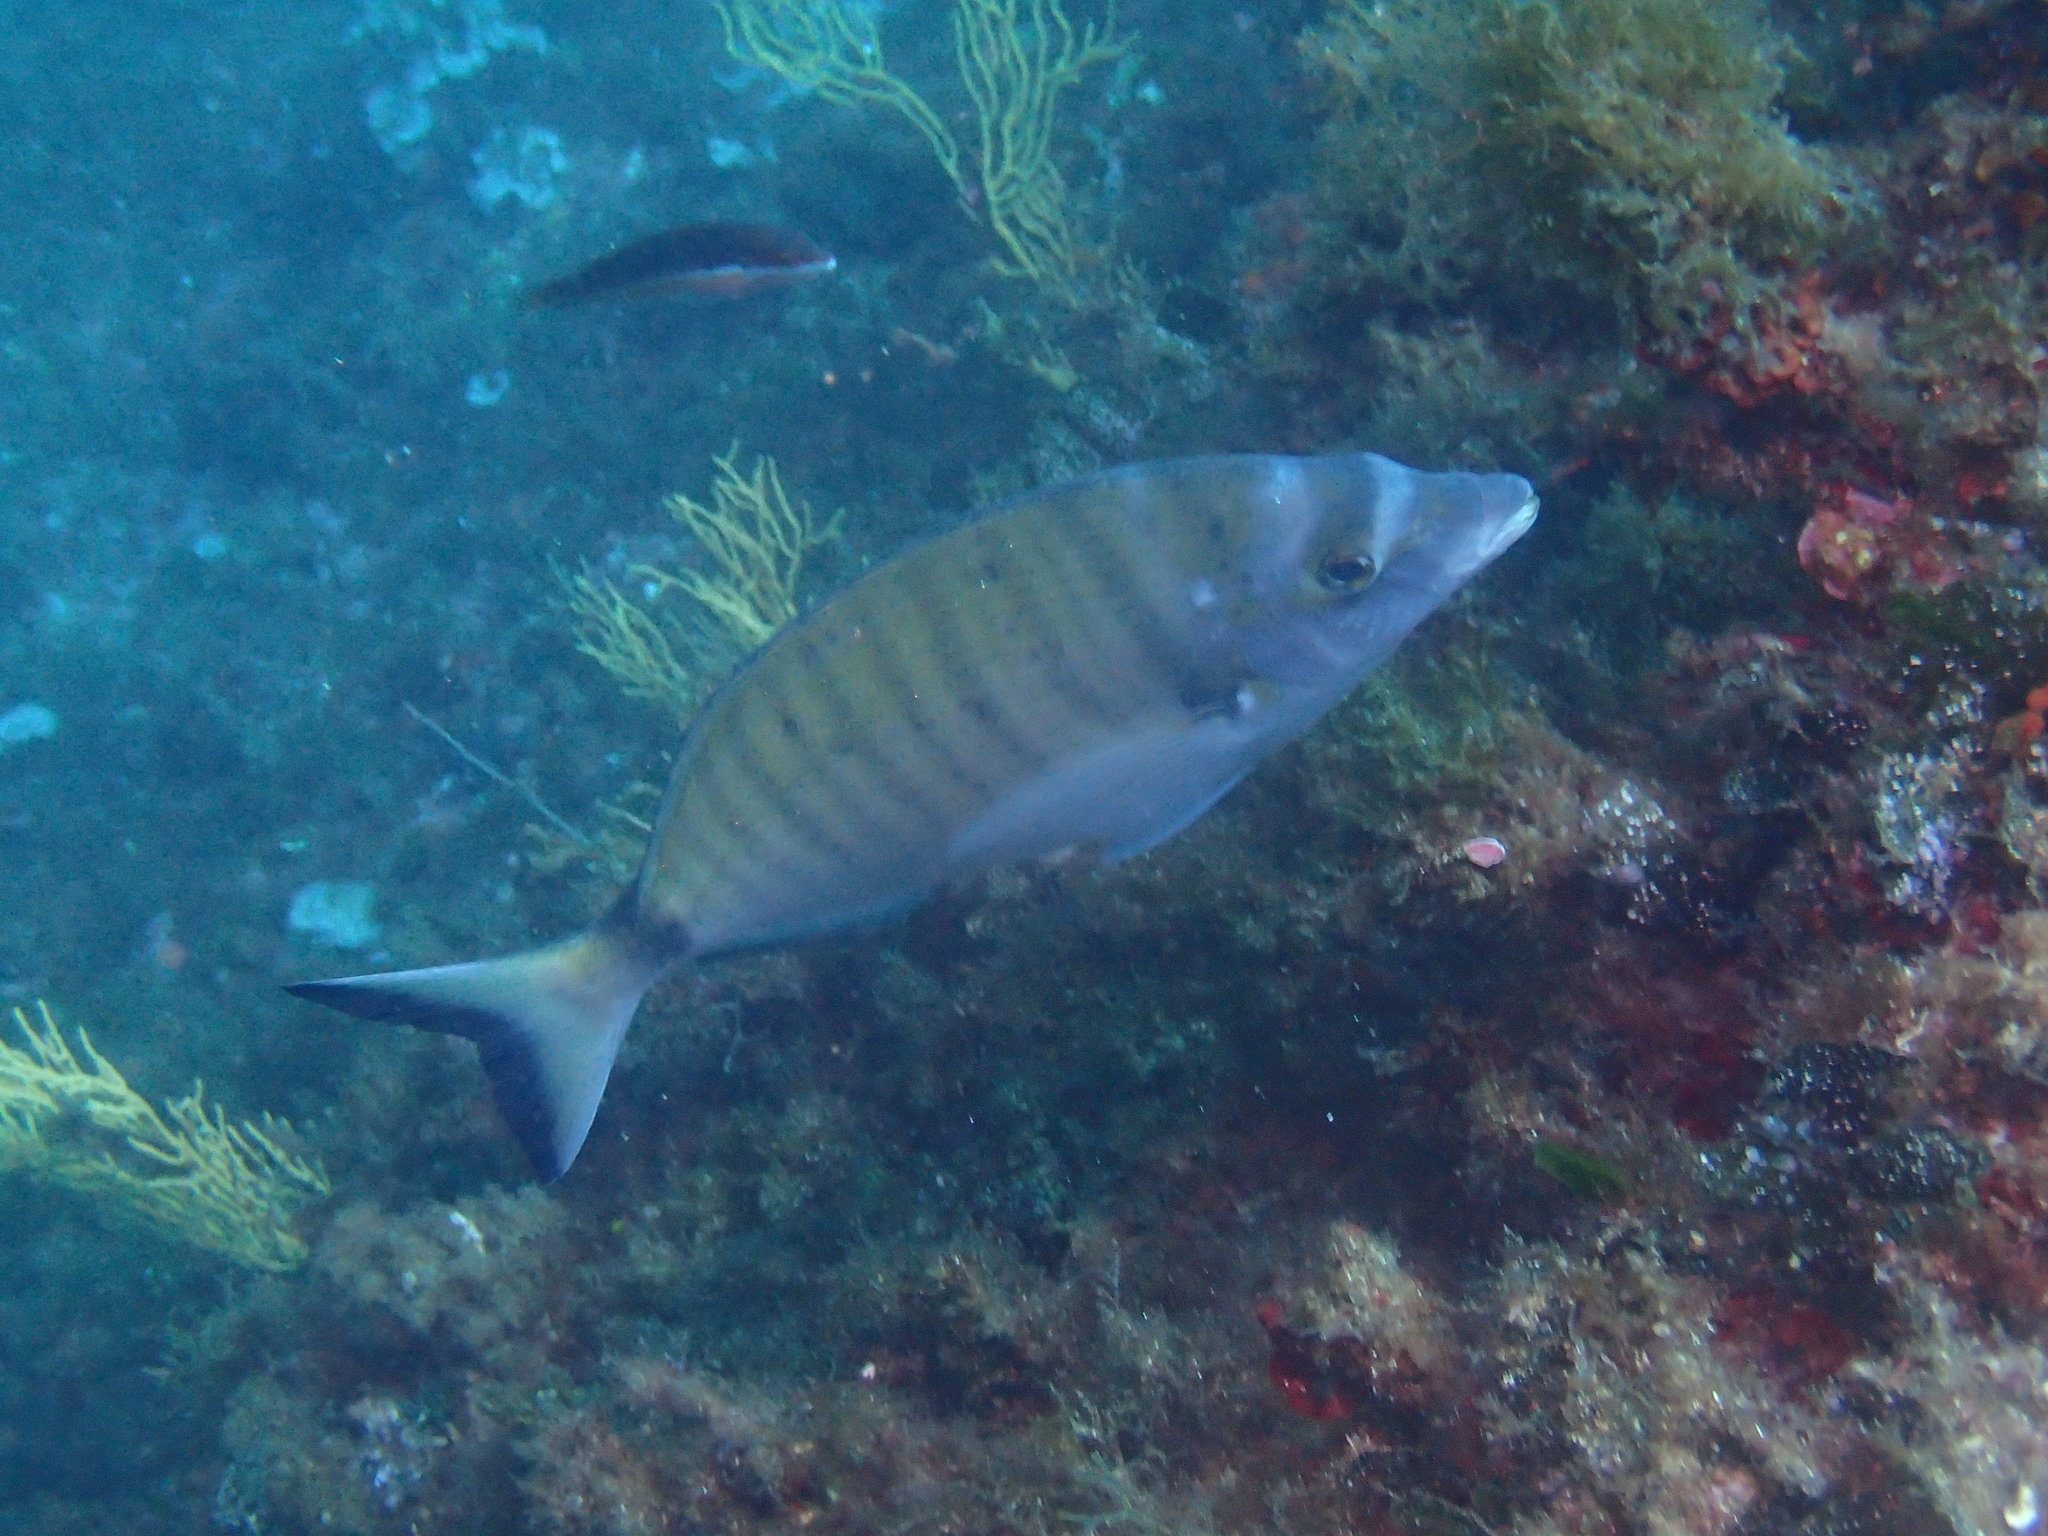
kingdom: Animalia
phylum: Chordata
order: Perciformes
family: Sparidae
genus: Diplodus
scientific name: Diplodus puntazzo
